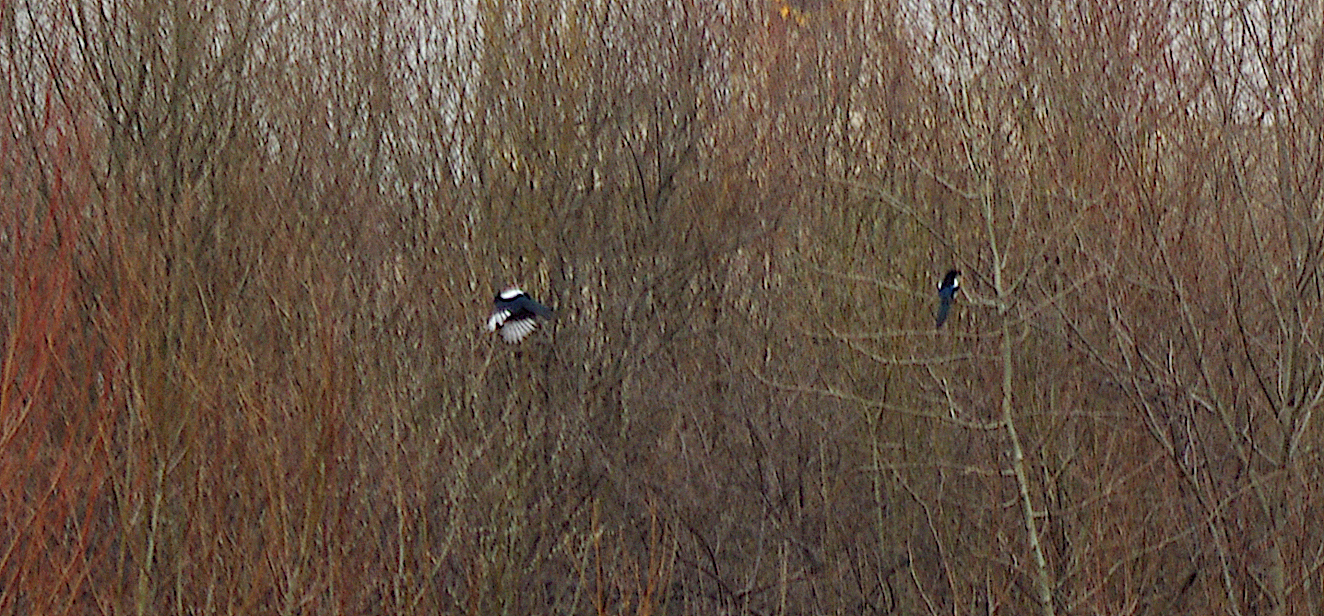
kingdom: Animalia
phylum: Chordata
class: Aves
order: Passeriformes
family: Corvidae
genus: Pica
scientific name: Pica pica
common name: Eurasian magpie
